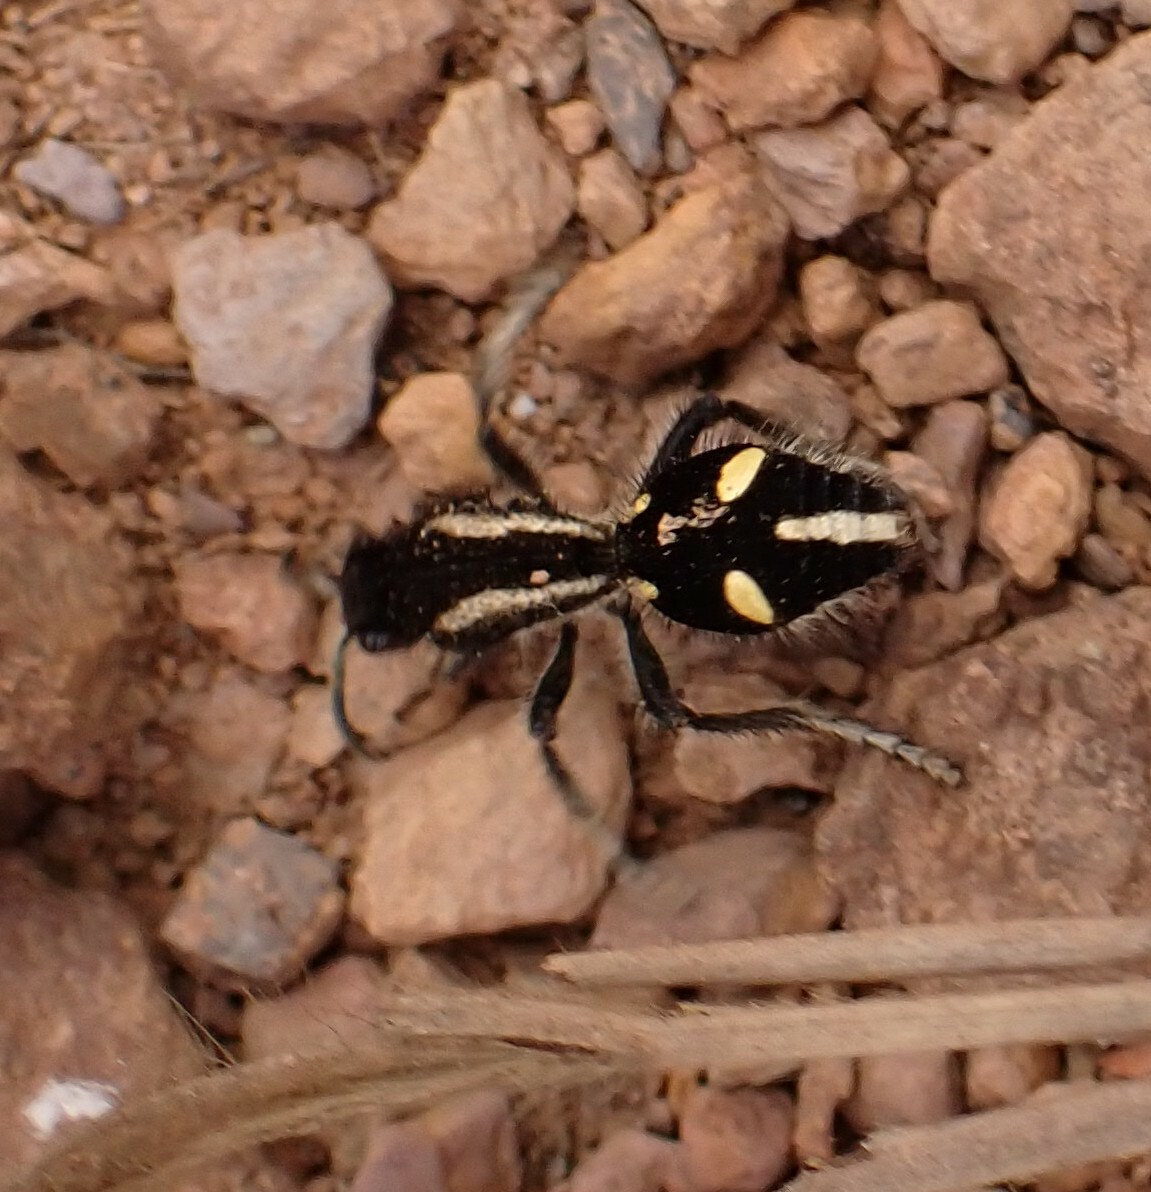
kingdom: Animalia
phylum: Arthropoda
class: Insecta
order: Hymenoptera
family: Mutillidae
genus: Traumatomutilla
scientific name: Traumatomutilla
